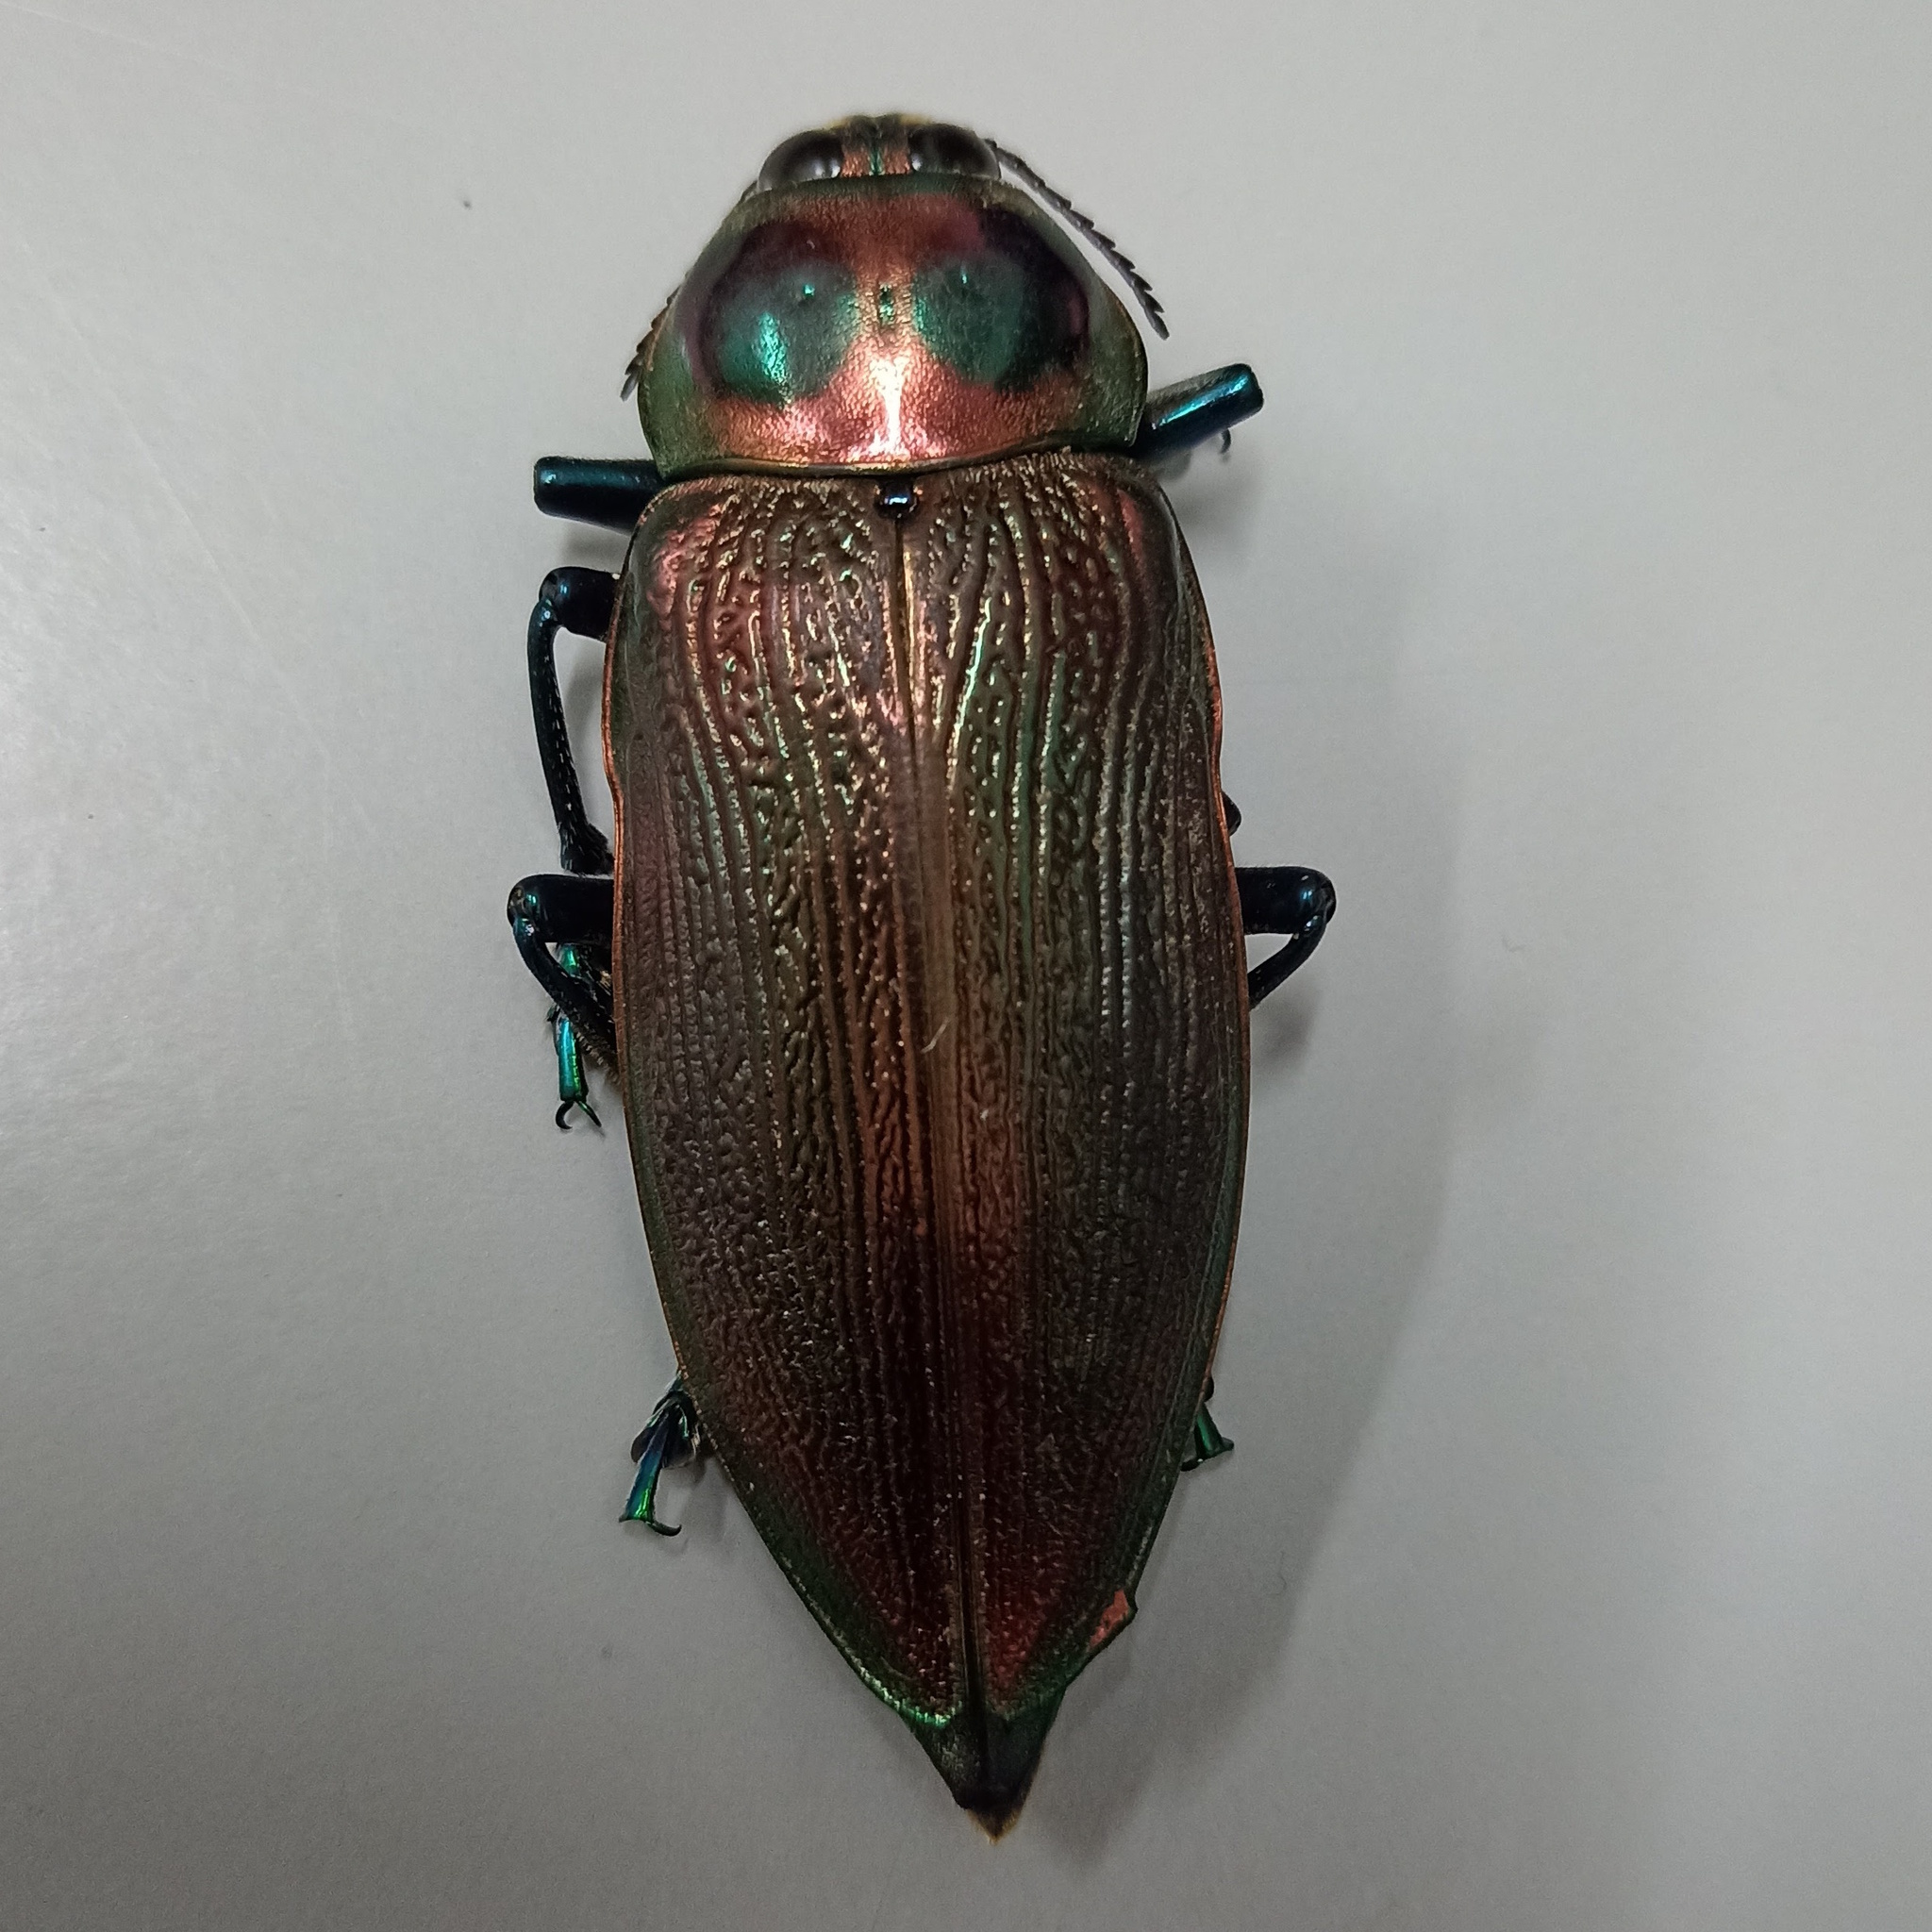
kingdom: Animalia
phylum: Arthropoda
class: Insecta
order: Coleoptera
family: Buprestidae
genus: Euchroma
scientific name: Euchroma giganteum
